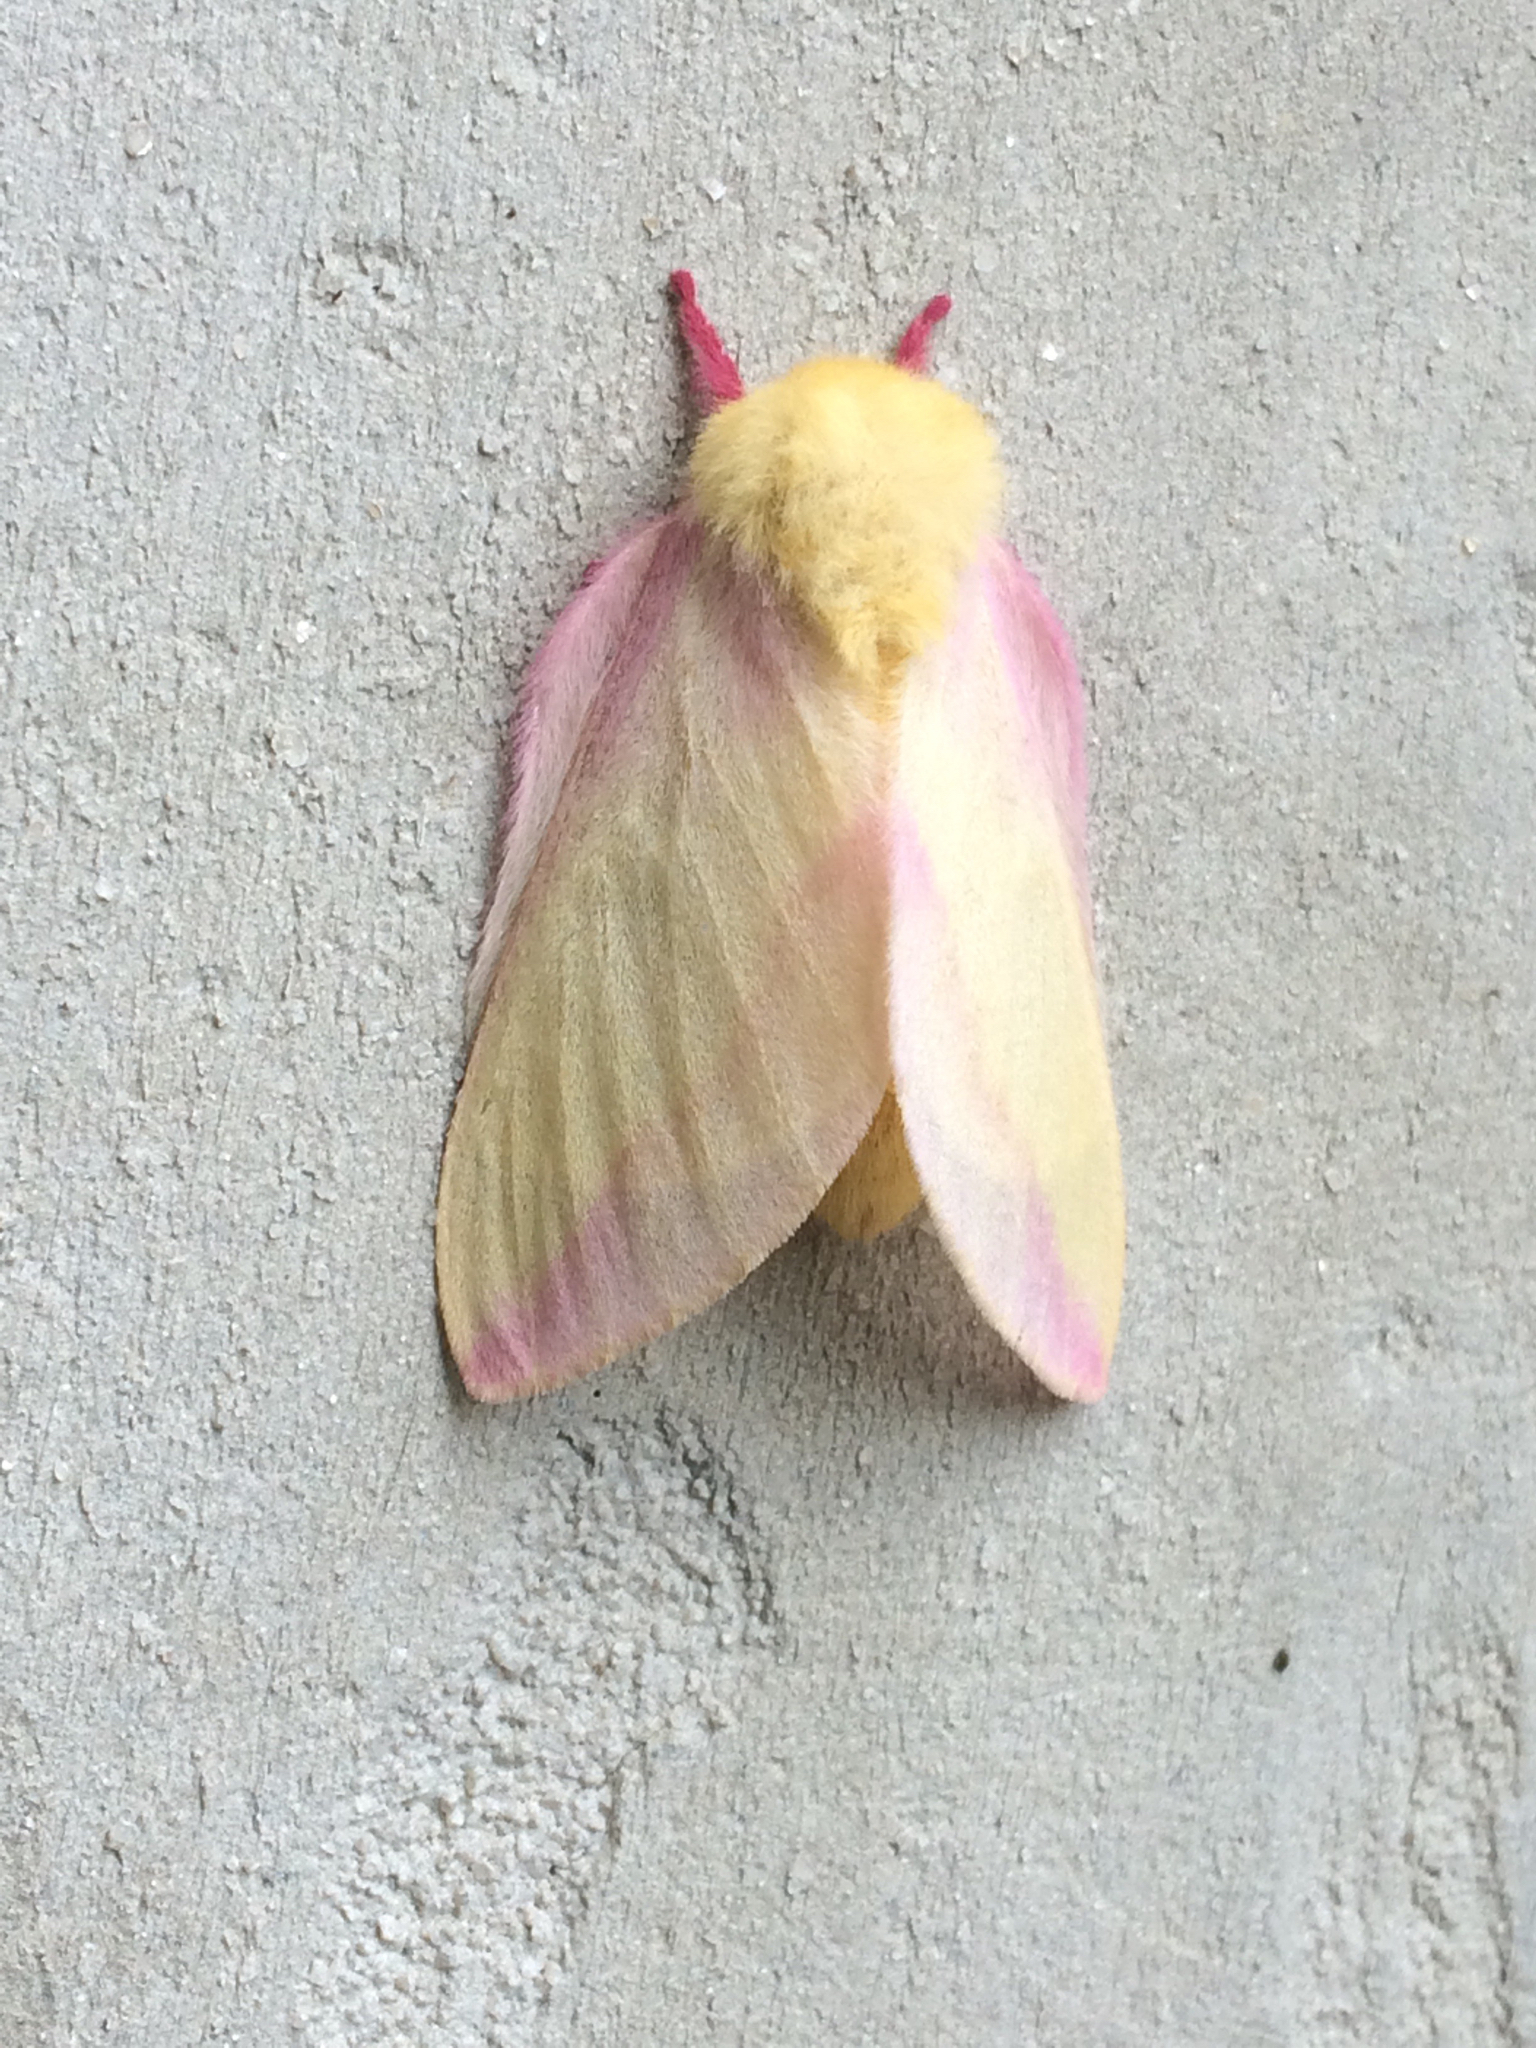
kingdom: Animalia
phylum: Arthropoda
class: Insecta
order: Lepidoptera
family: Saturniidae
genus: Dryocampa
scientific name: Dryocampa rubicunda
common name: Rosy maple moth
